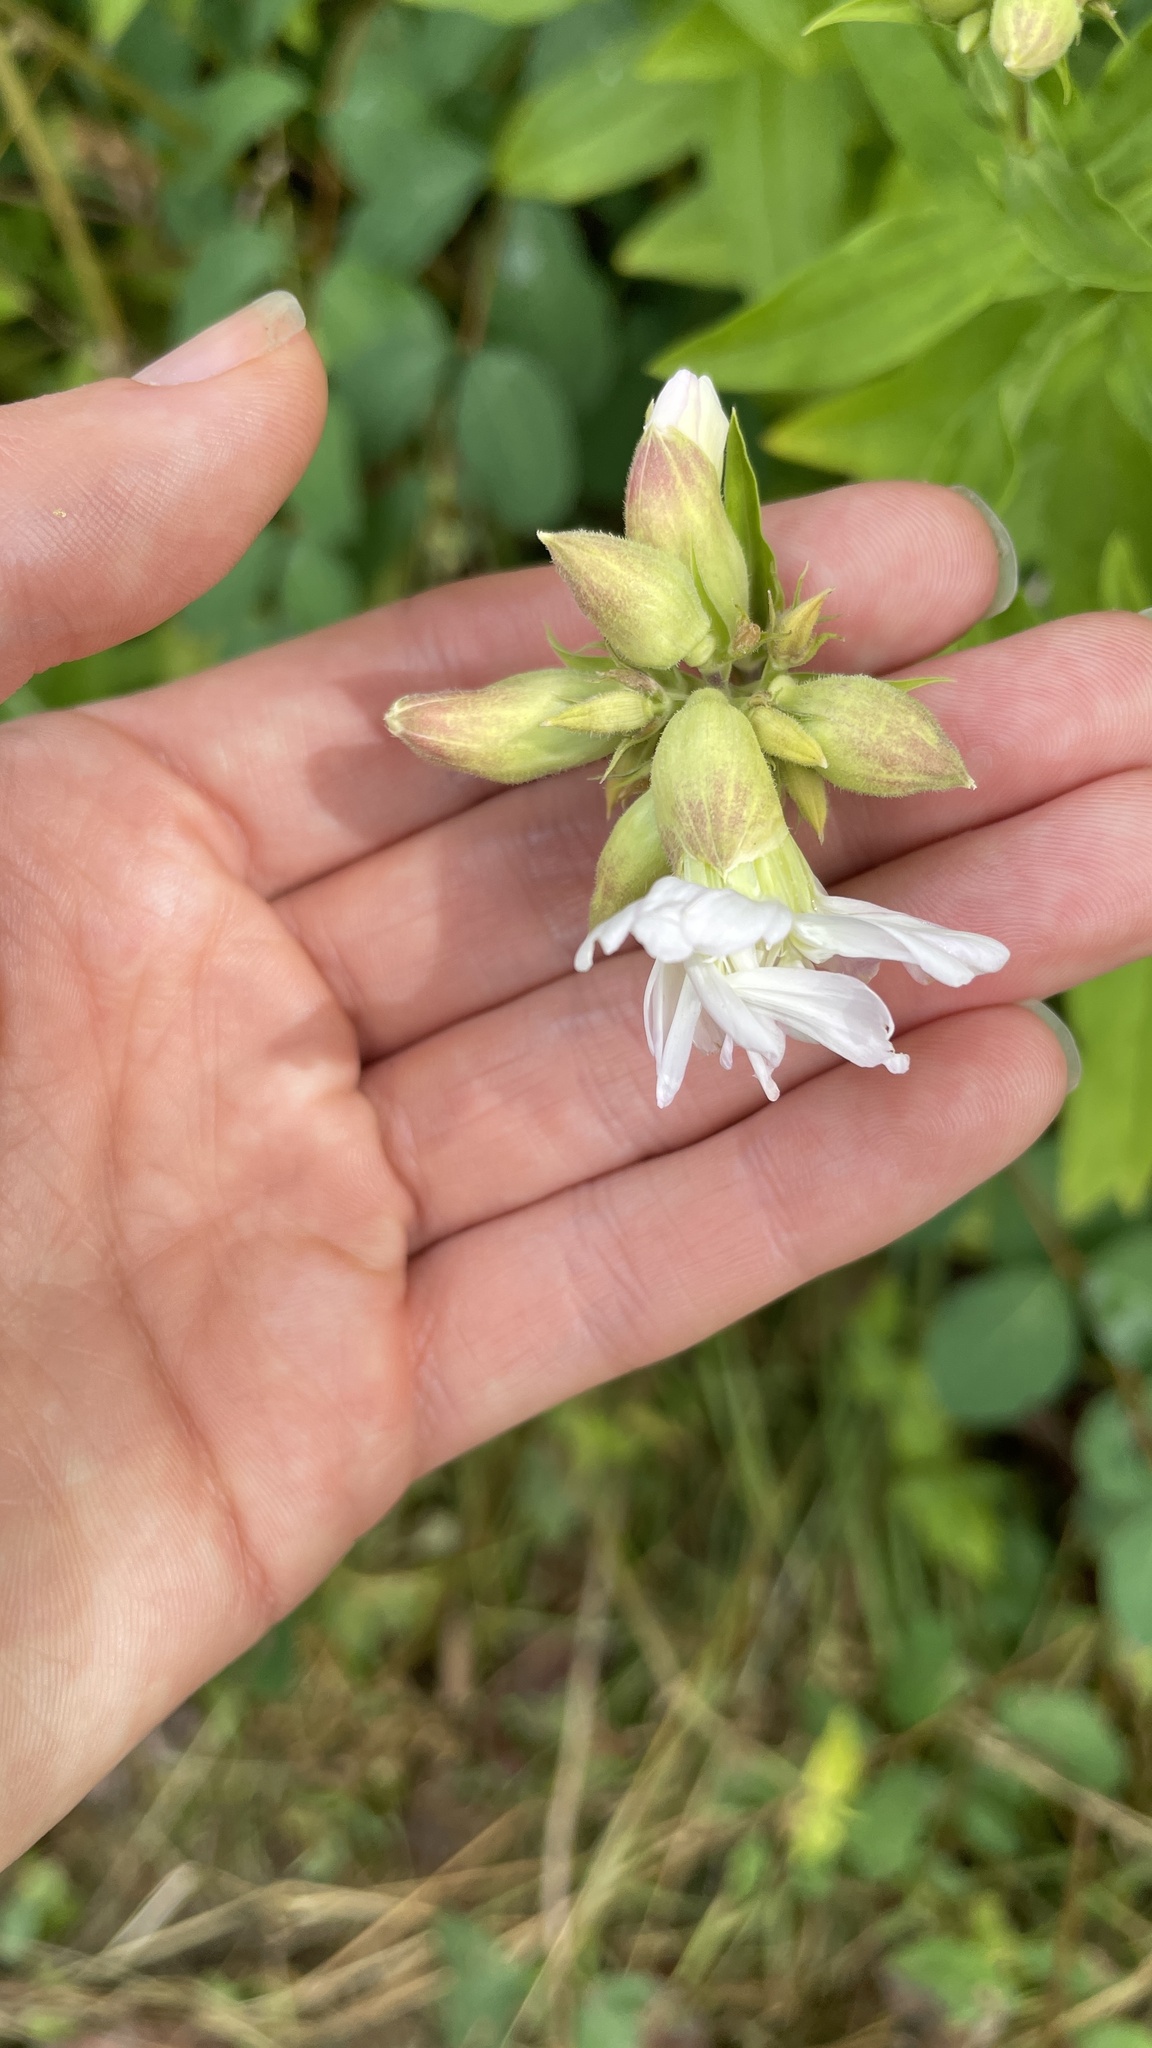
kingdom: Plantae
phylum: Tracheophyta
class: Magnoliopsida
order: Caryophyllales
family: Caryophyllaceae
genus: Saponaria
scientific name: Saponaria officinalis
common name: Soapwort
